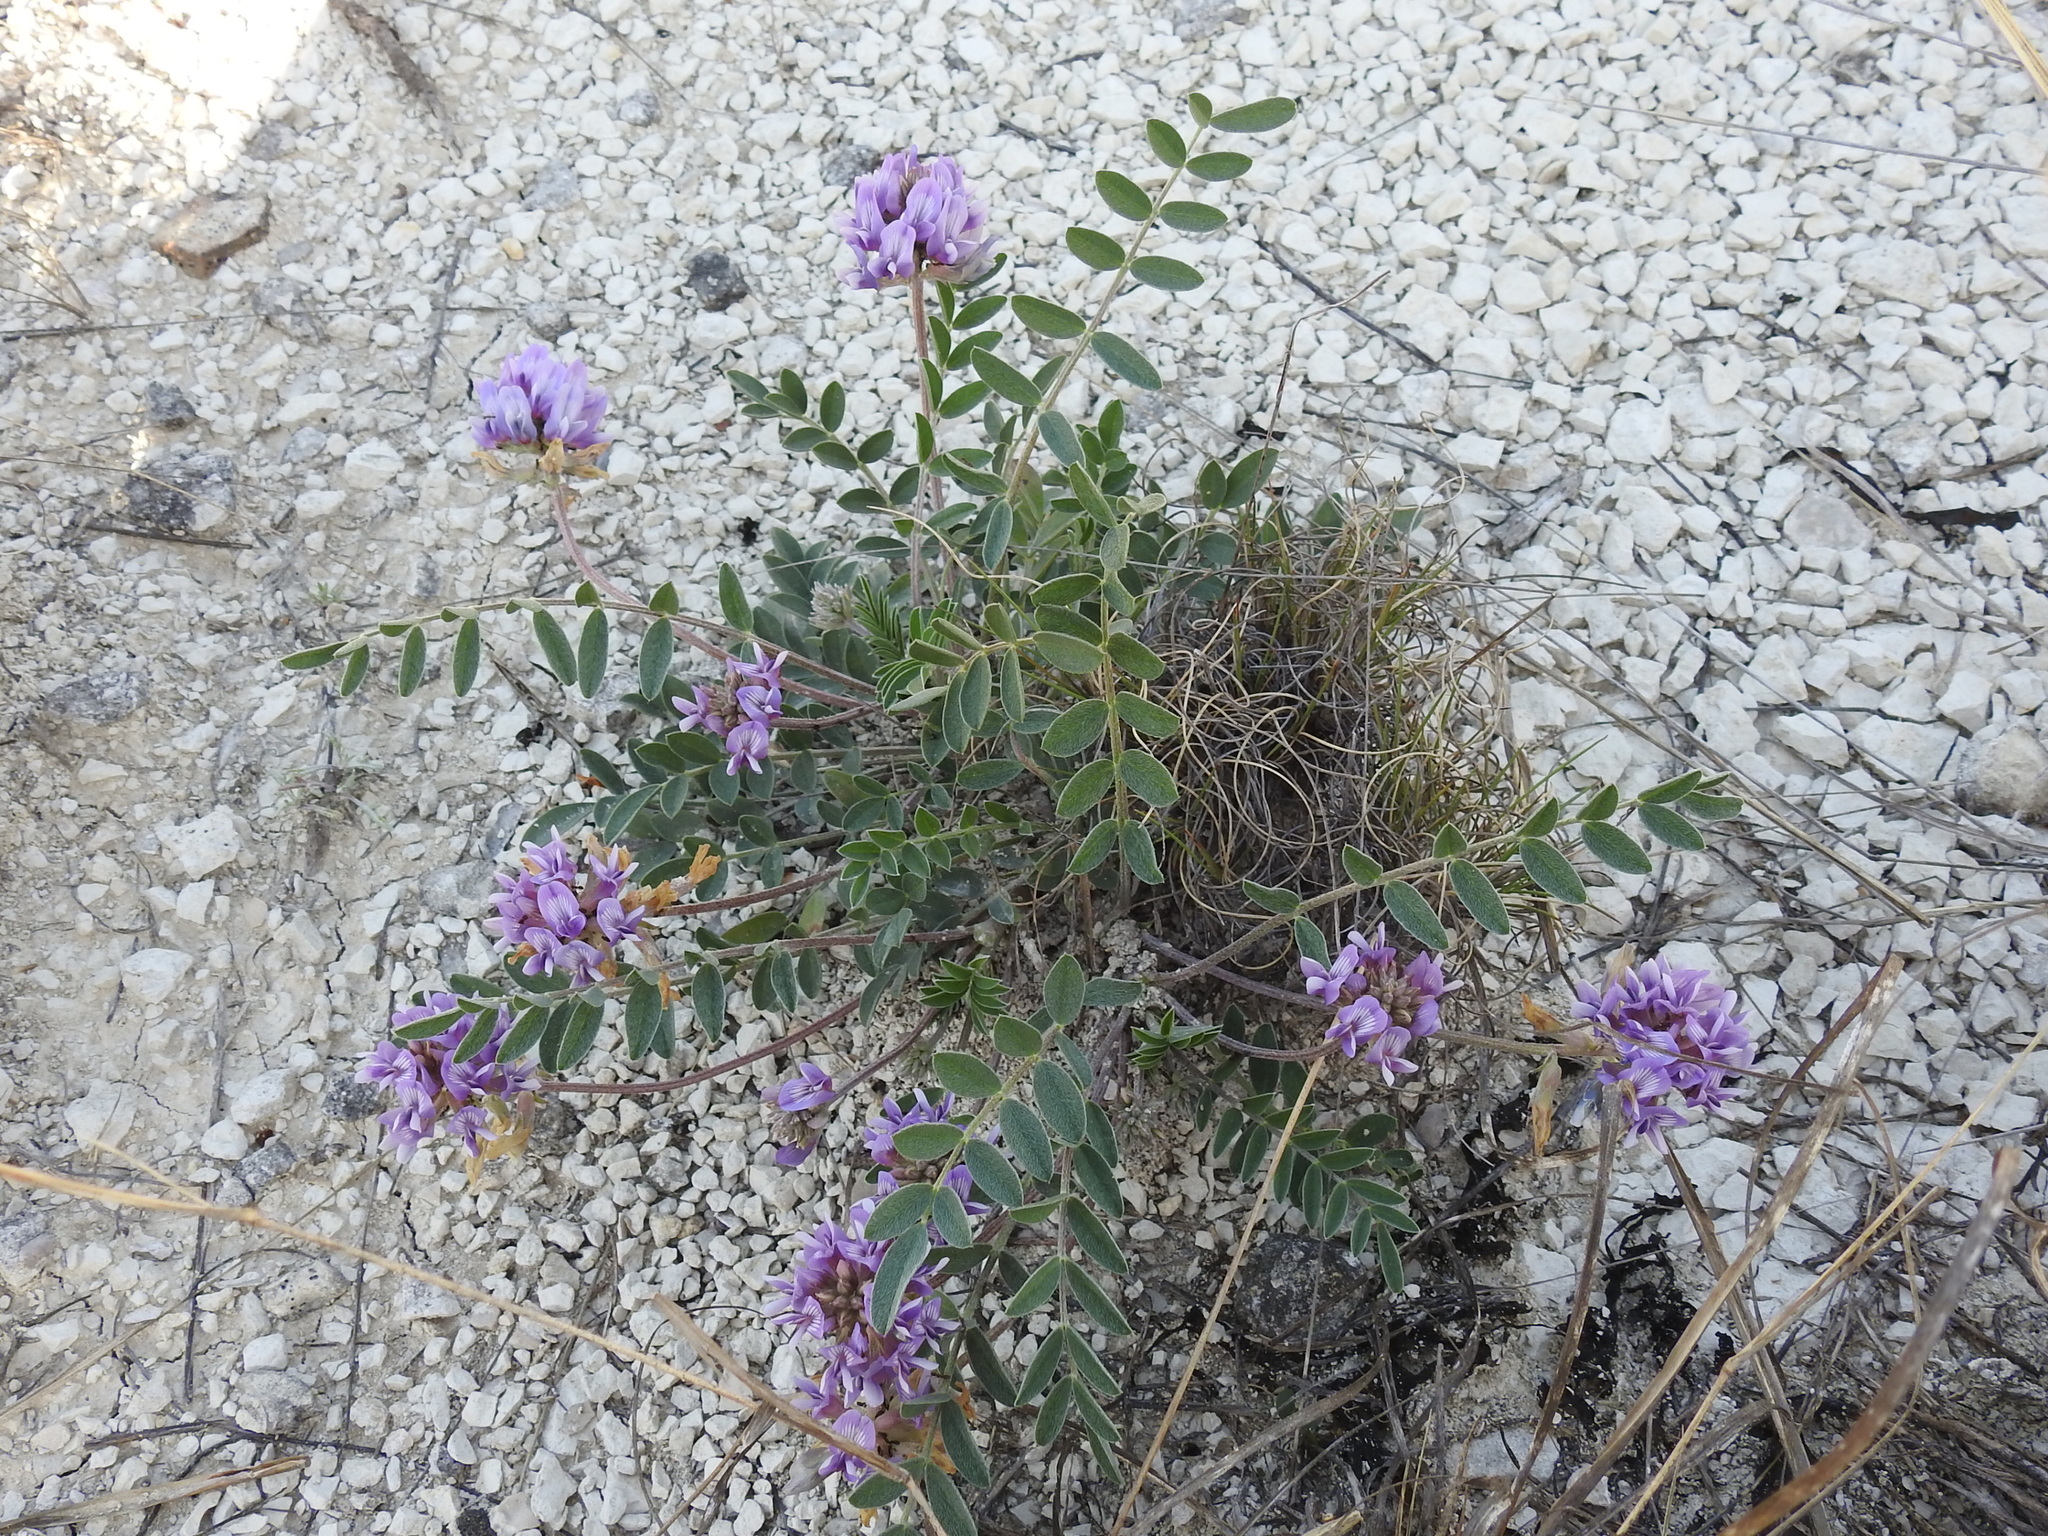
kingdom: Plantae
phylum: Tracheophyta
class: Magnoliopsida
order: Fabales
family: Fabaceae
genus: Astragalus
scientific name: Astragalus lotiflorus
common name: Lotus milk-vetch
